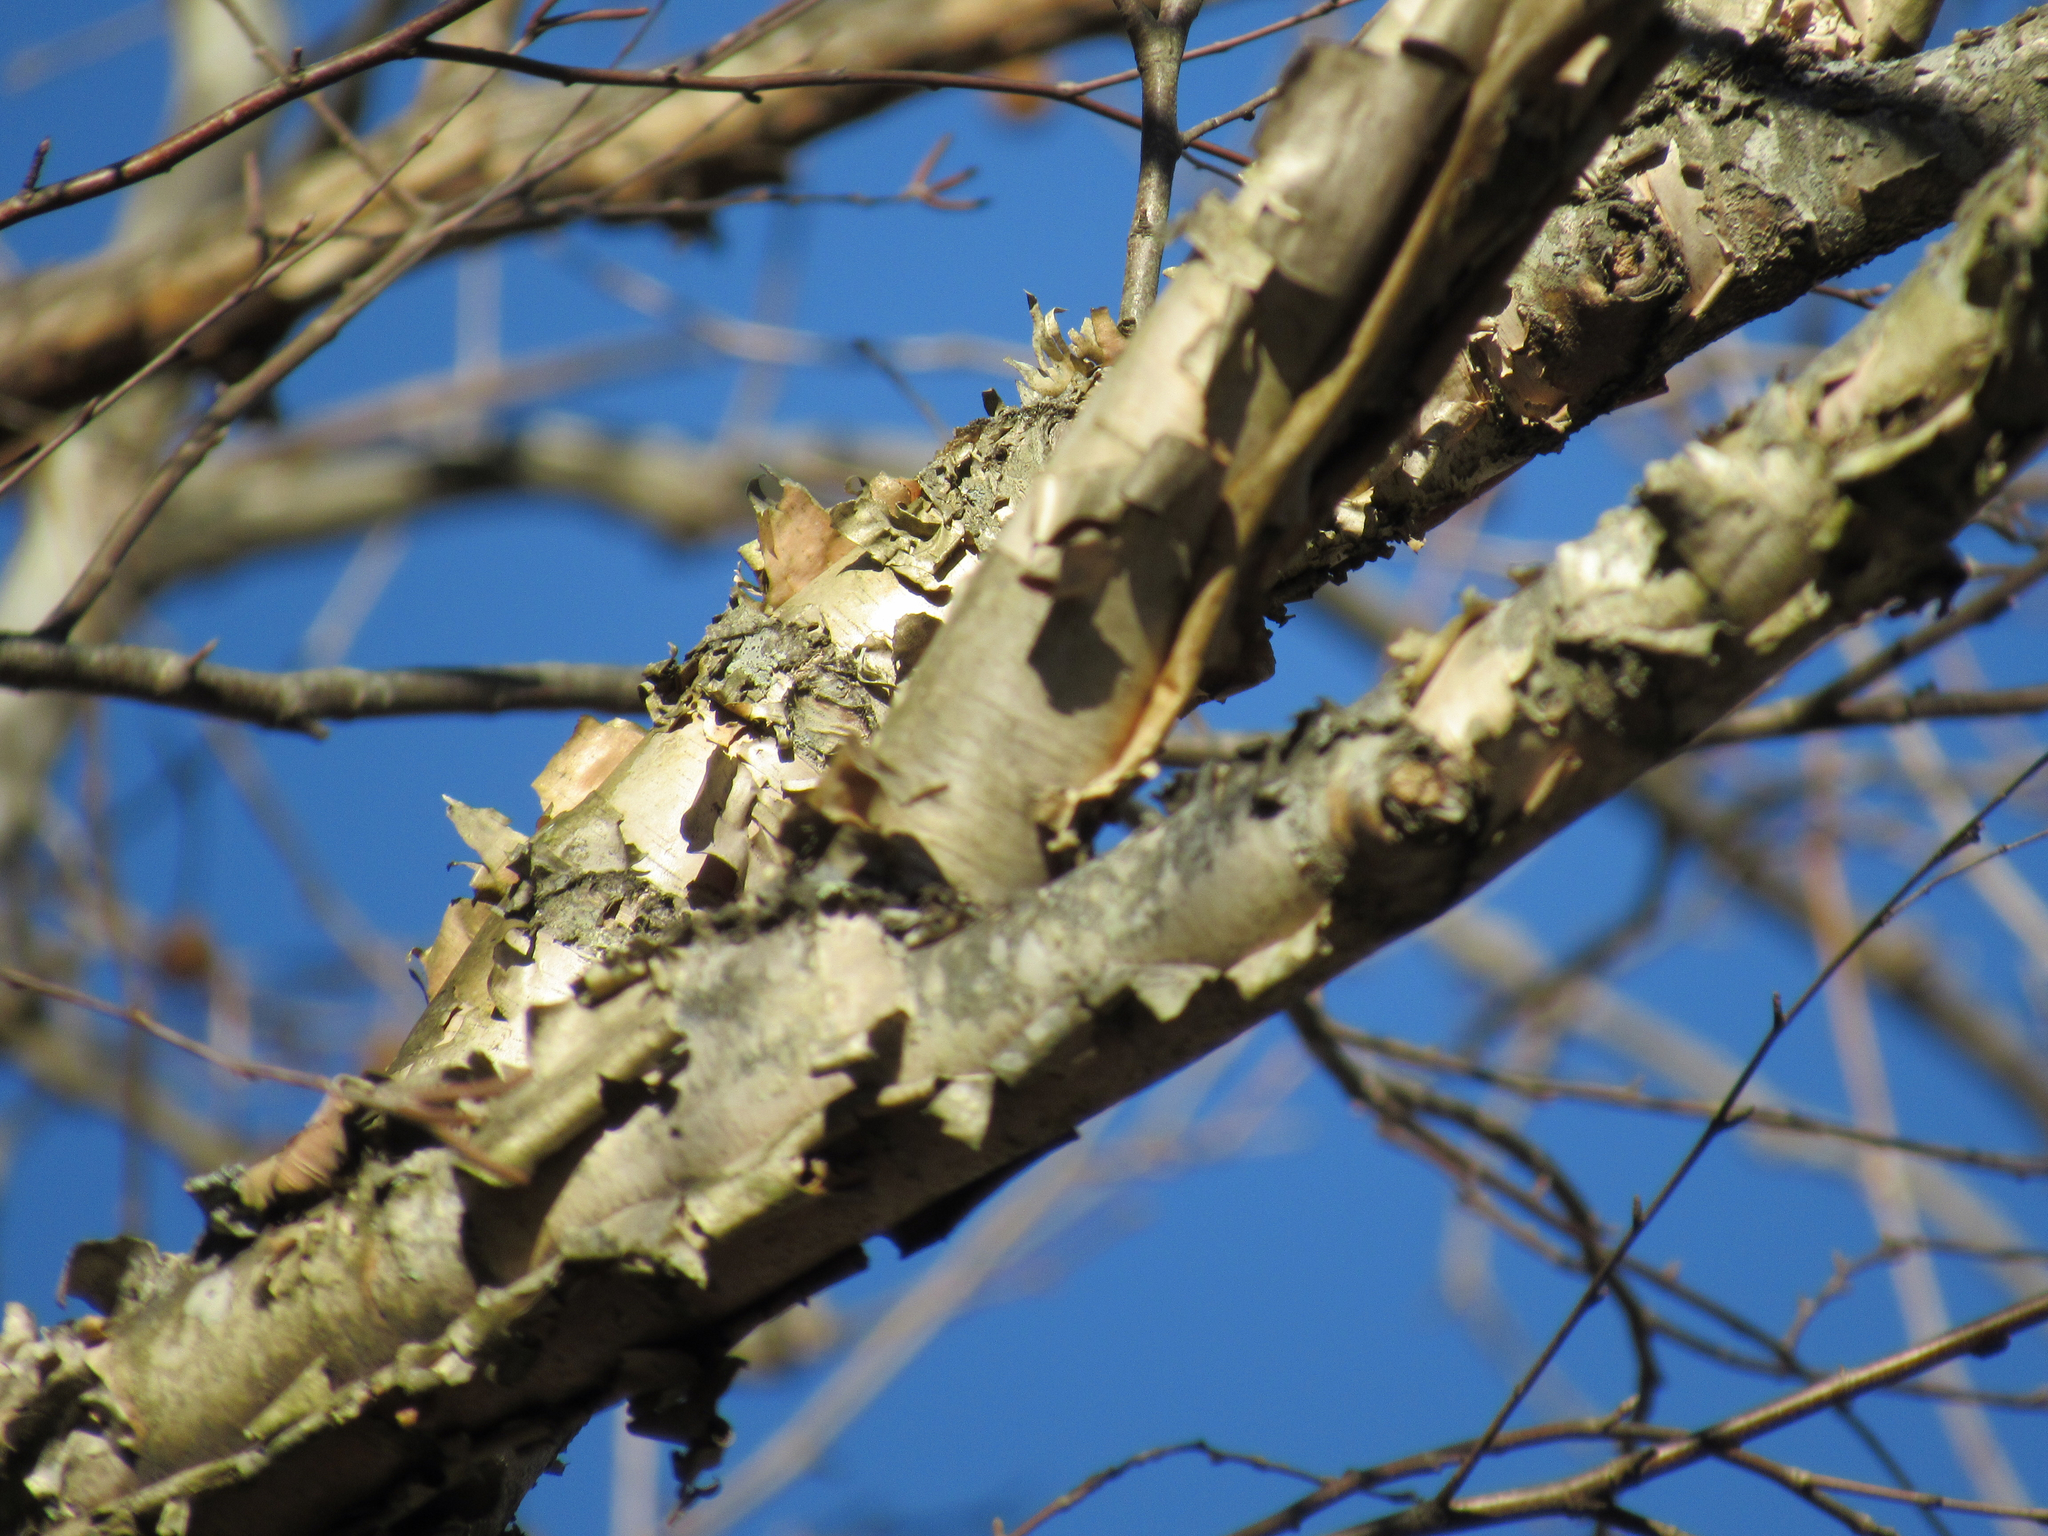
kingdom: Plantae
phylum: Tracheophyta
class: Magnoliopsida
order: Fagales
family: Betulaceae
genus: Betula
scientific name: Betula nigra
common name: Black birch
